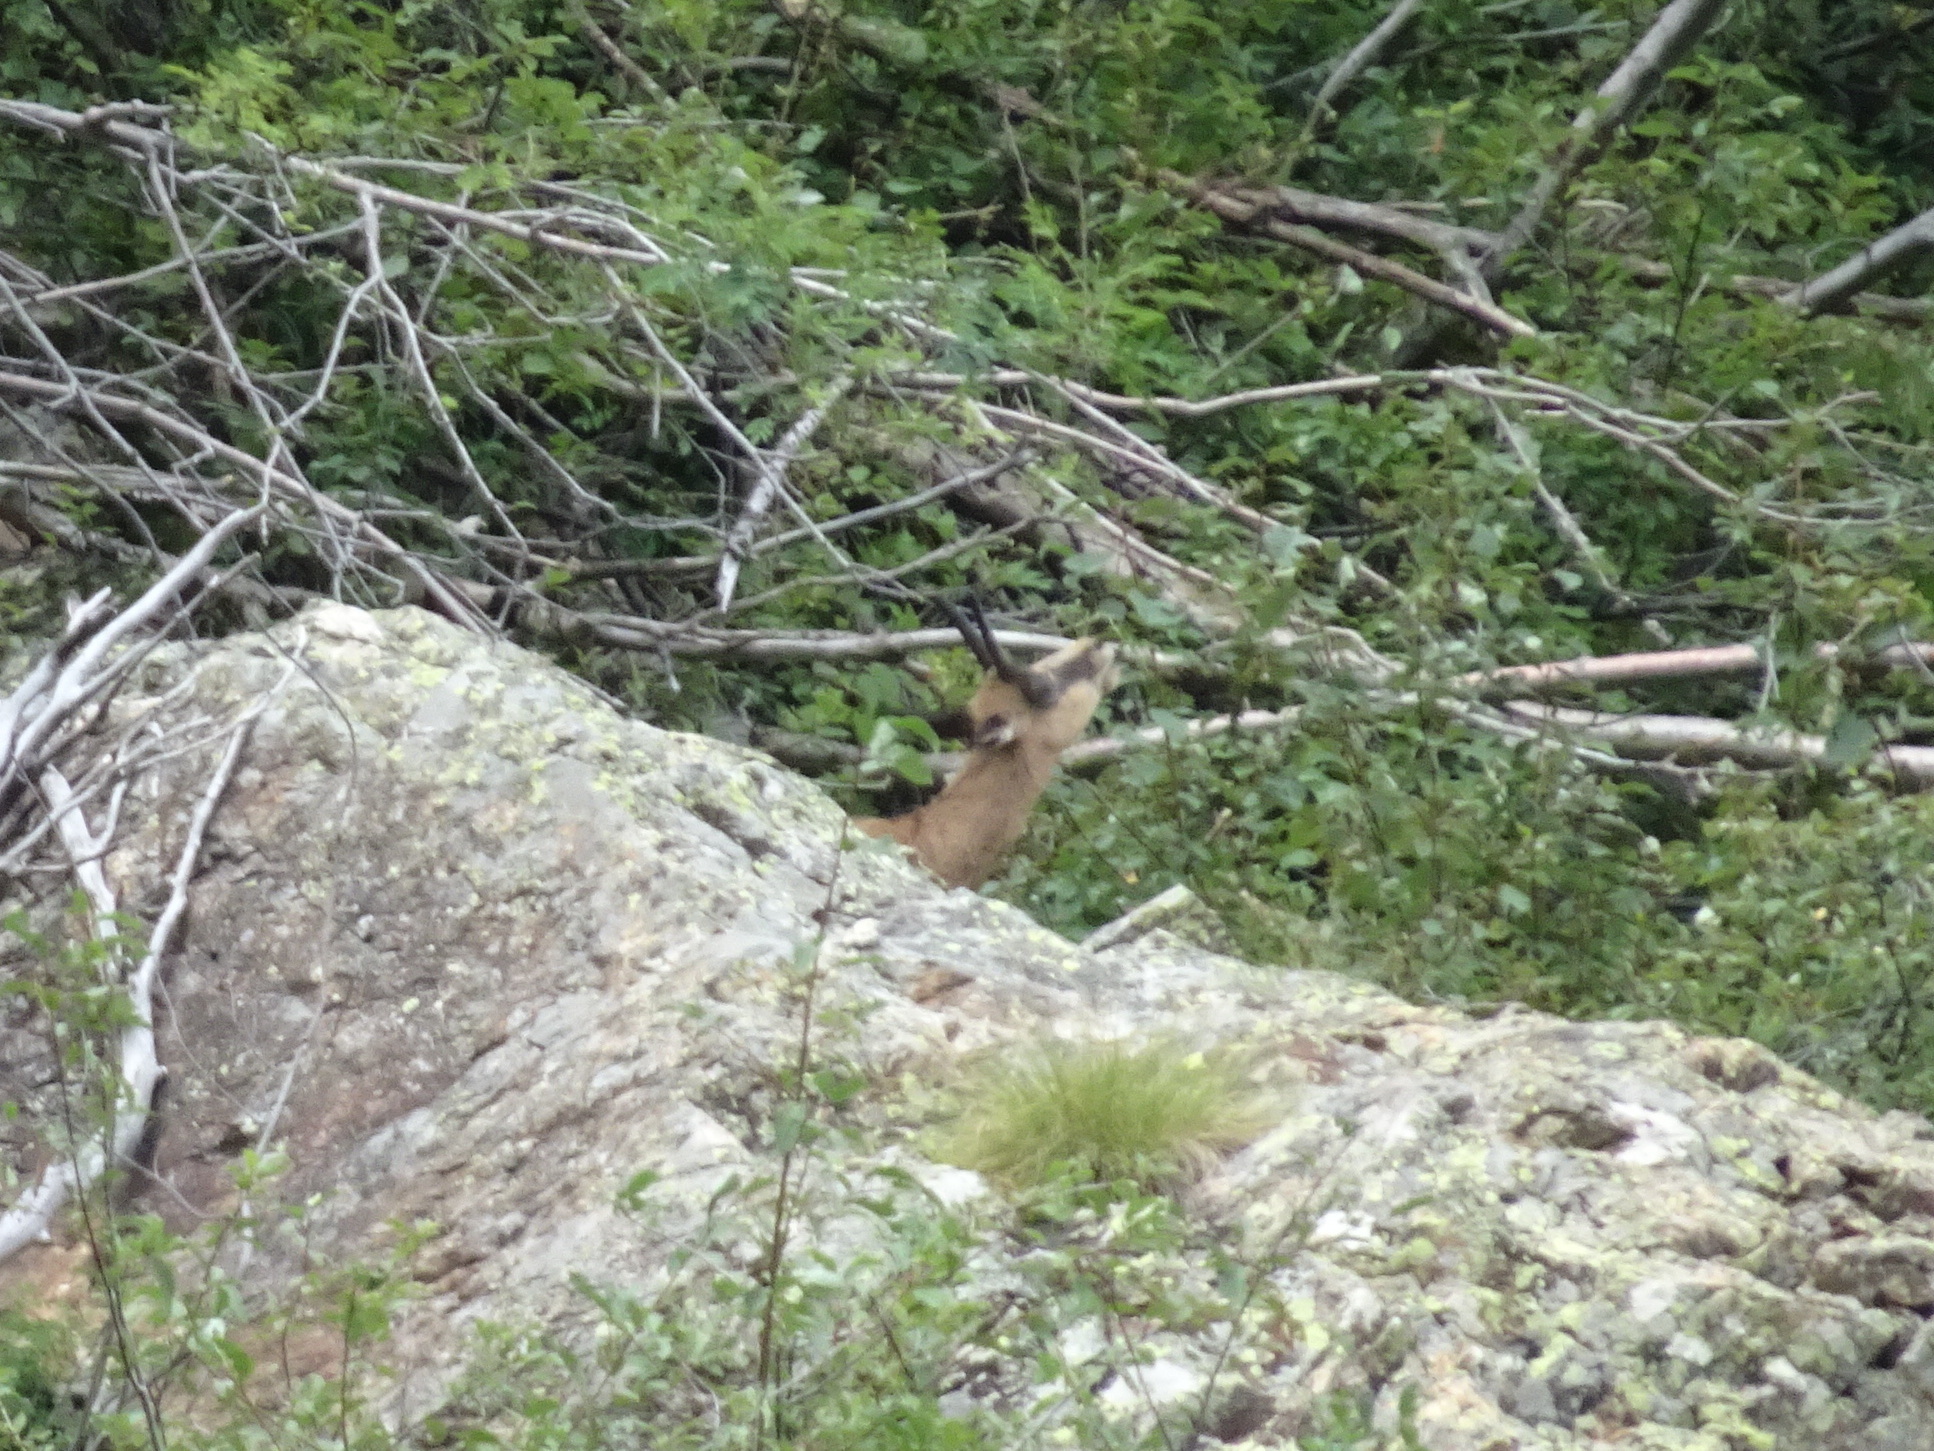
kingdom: Animalia
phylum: Chordata
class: Mammalia
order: Artiodactyla
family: Bovidae
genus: Rupicapra
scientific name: Rupicapra rupicapra
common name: Chamois
